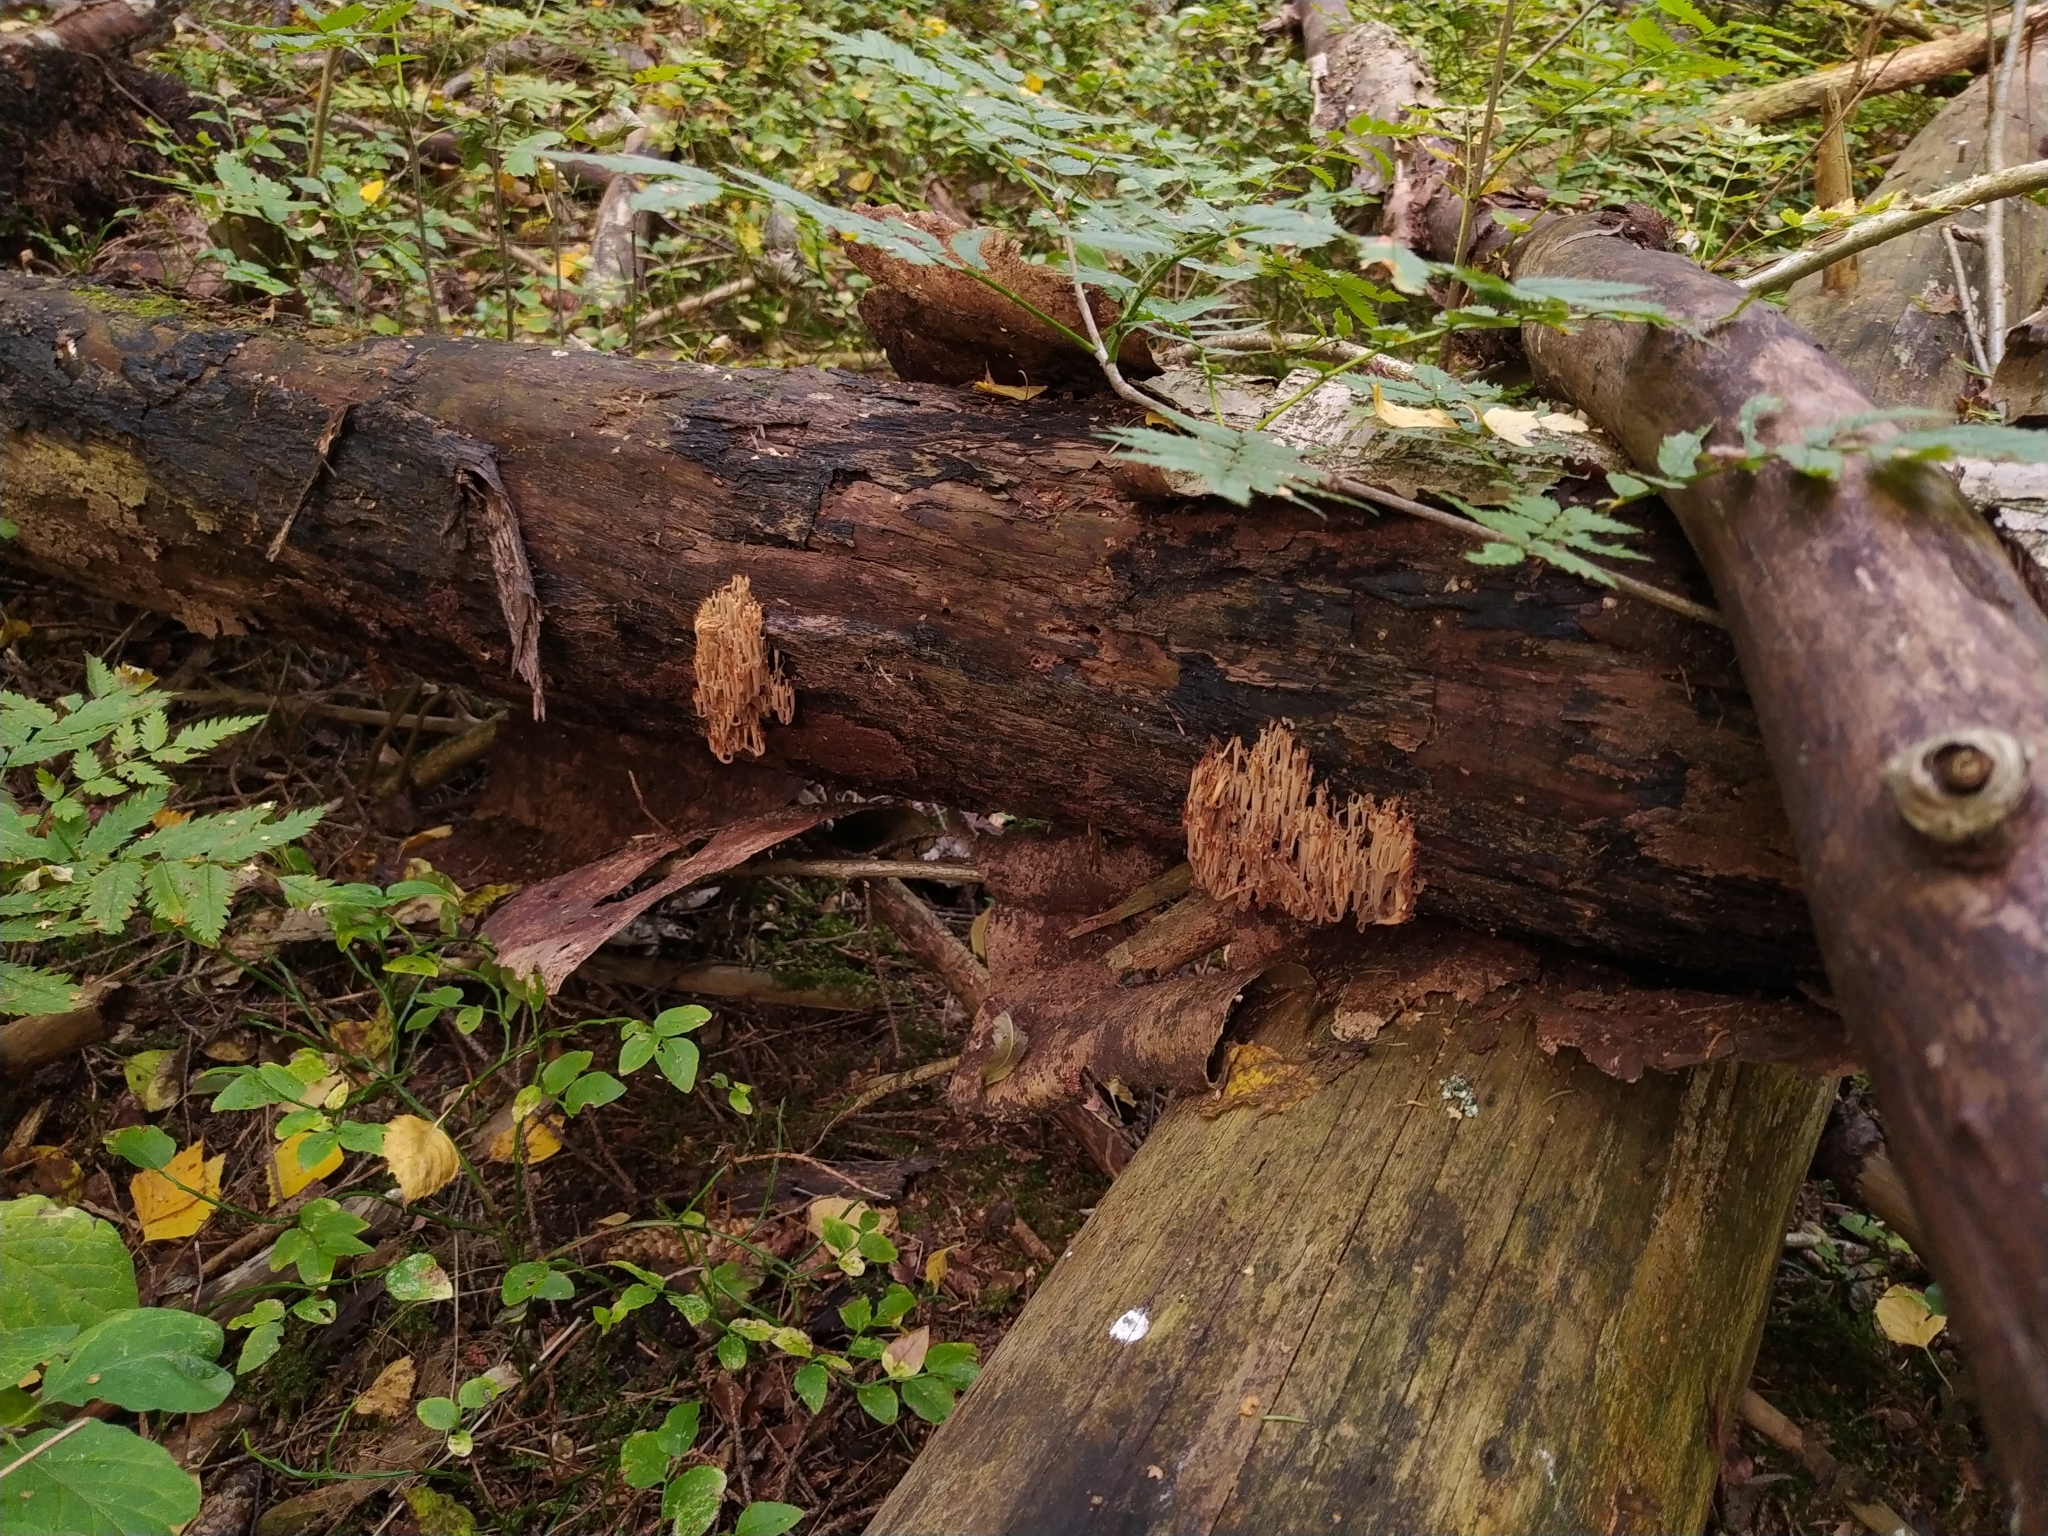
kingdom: Fungi
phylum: Basidiomycota
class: Agaricomycetes
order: Russulales
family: Auriscalpiaceae
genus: Artomyces
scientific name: Artomyces pyxidatus
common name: Crown-tipped coral fungus
